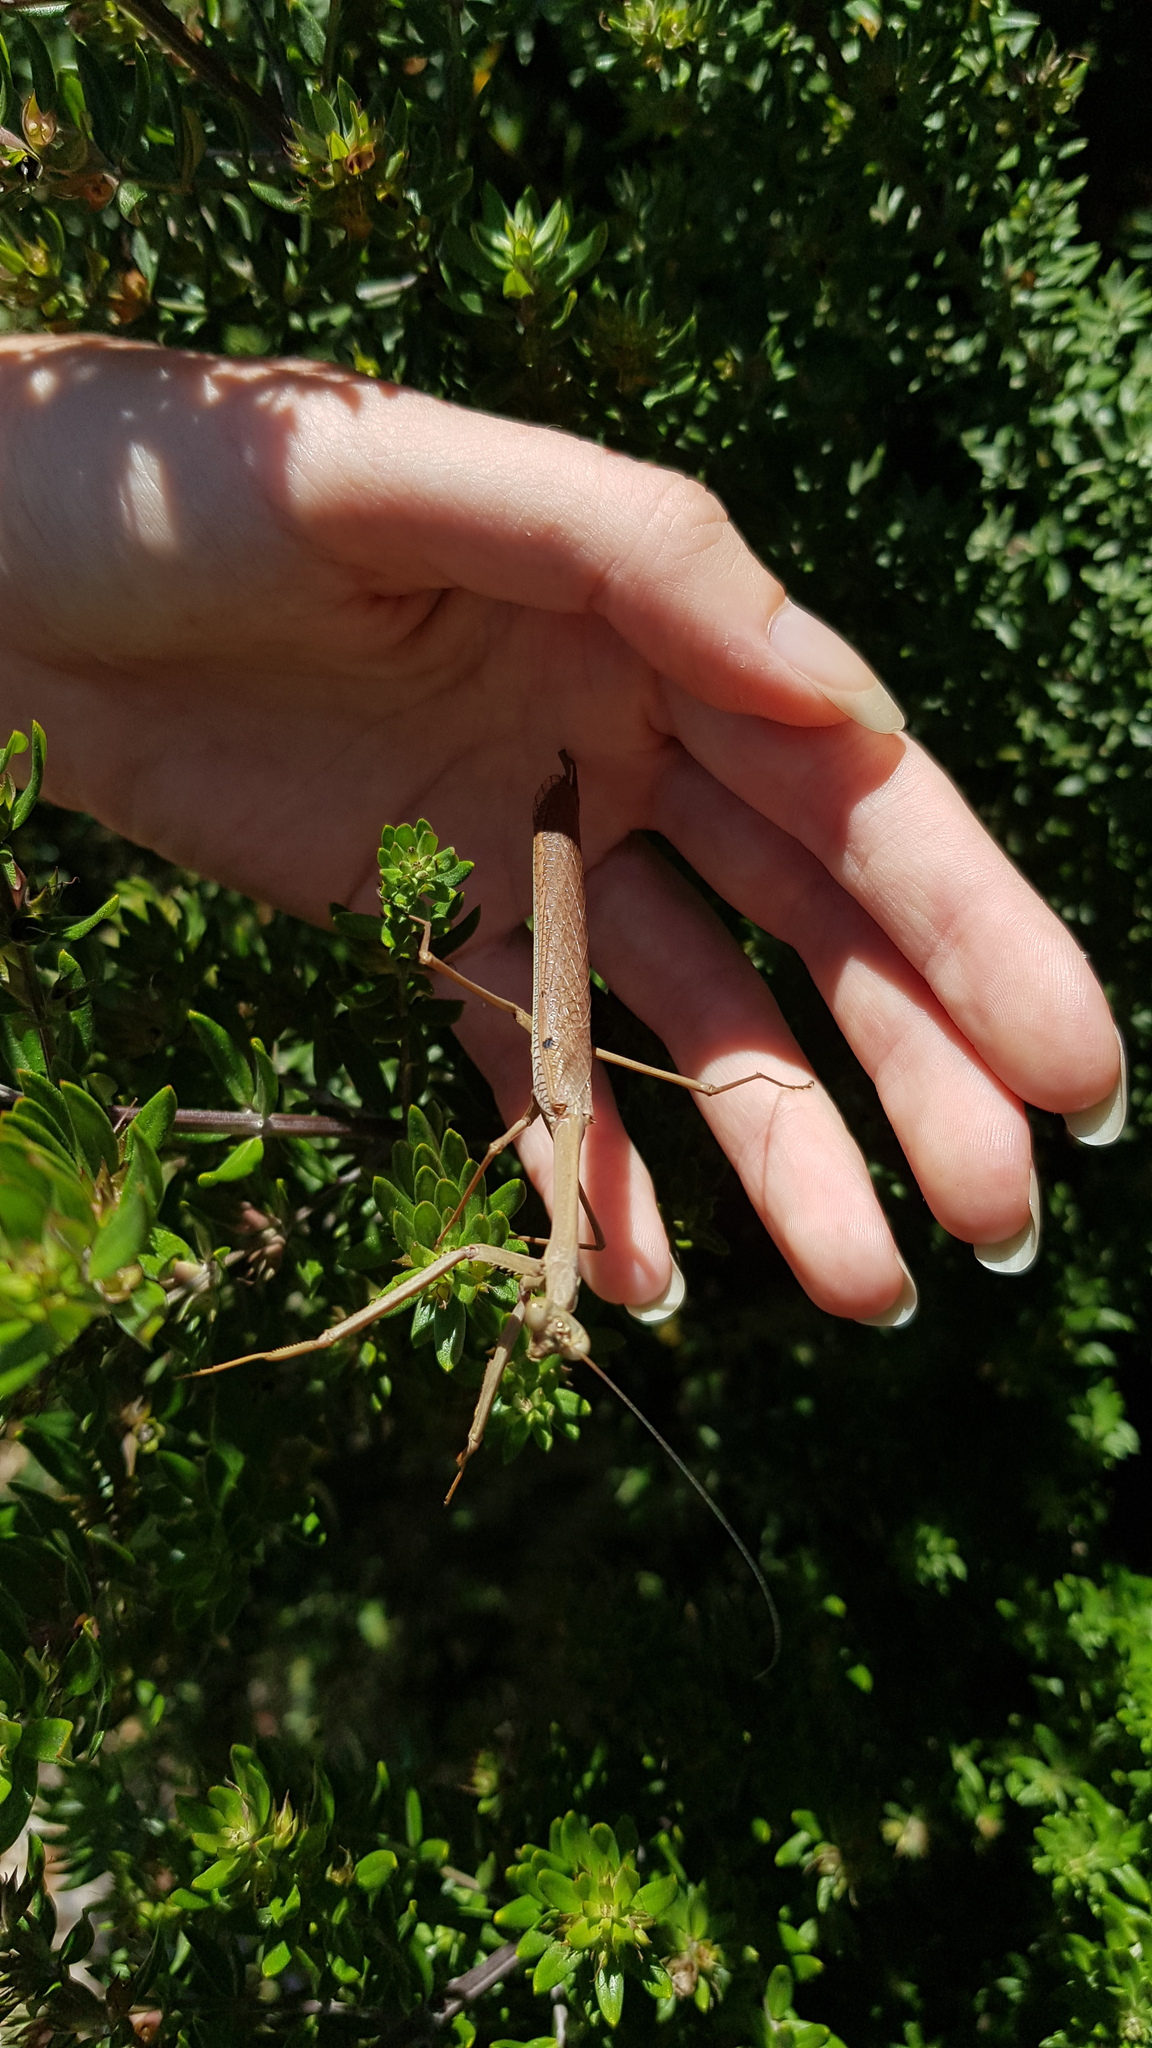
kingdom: Animalia
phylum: Arthropoda
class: Insecta
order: Mantodea
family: Mantidae
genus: Archimantis
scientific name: Archimantis latistyla
